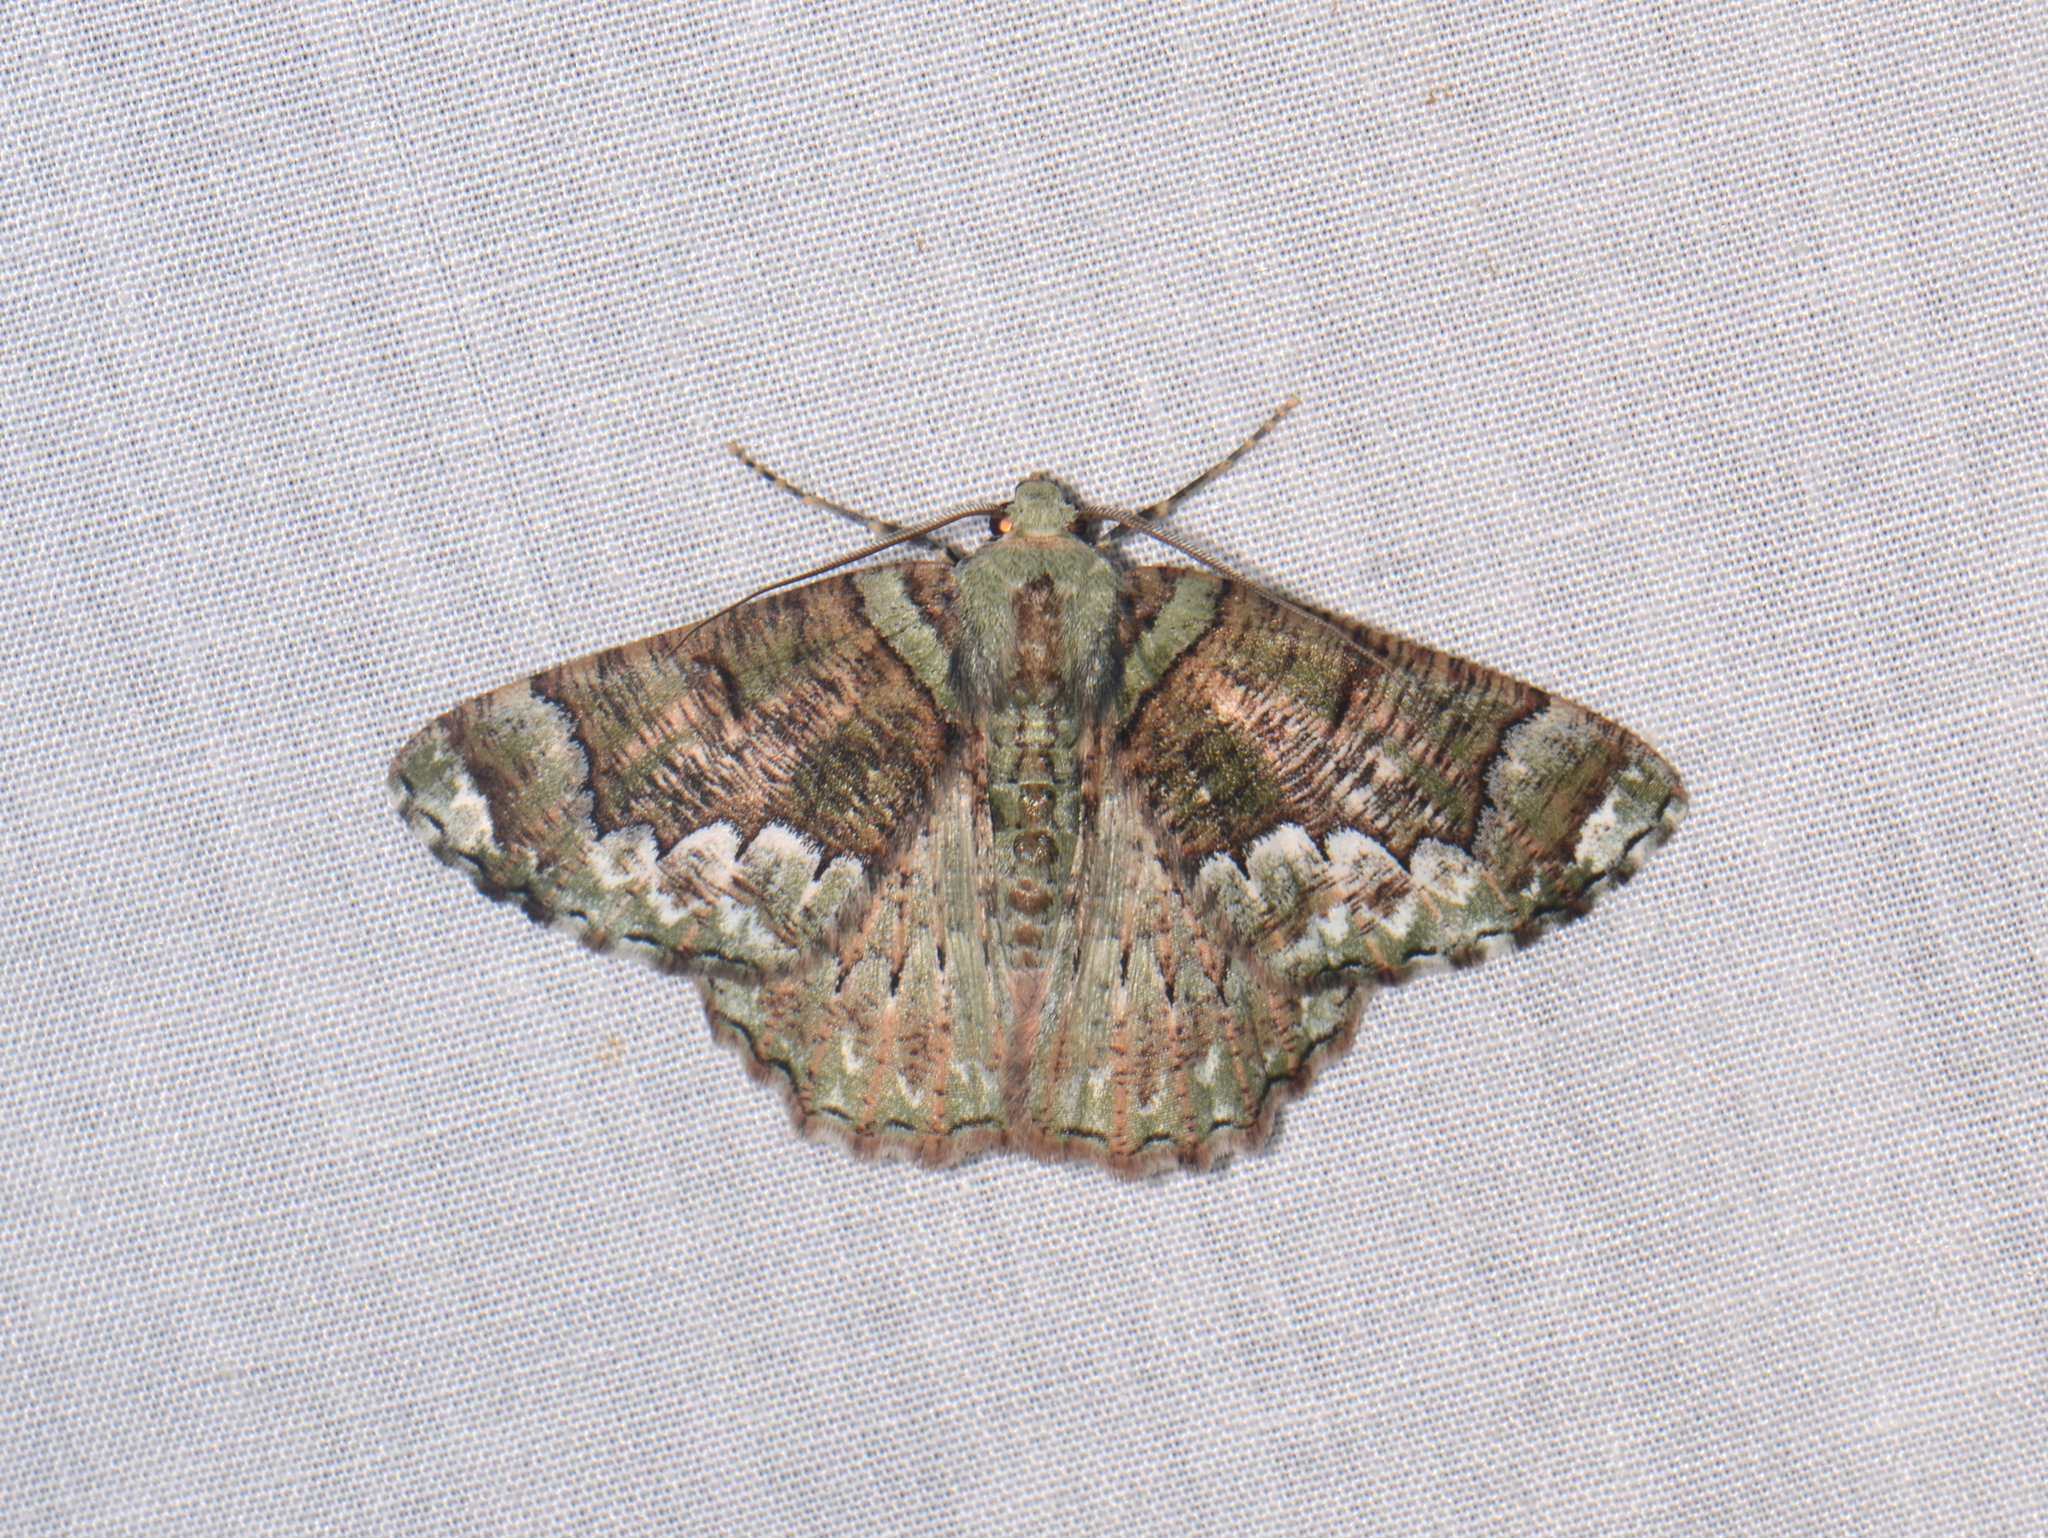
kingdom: Animalia
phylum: Arthropoda
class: Insecta
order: Lepidoptera
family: Geometridae
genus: Lophophelma
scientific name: Lophophelma erionoma
